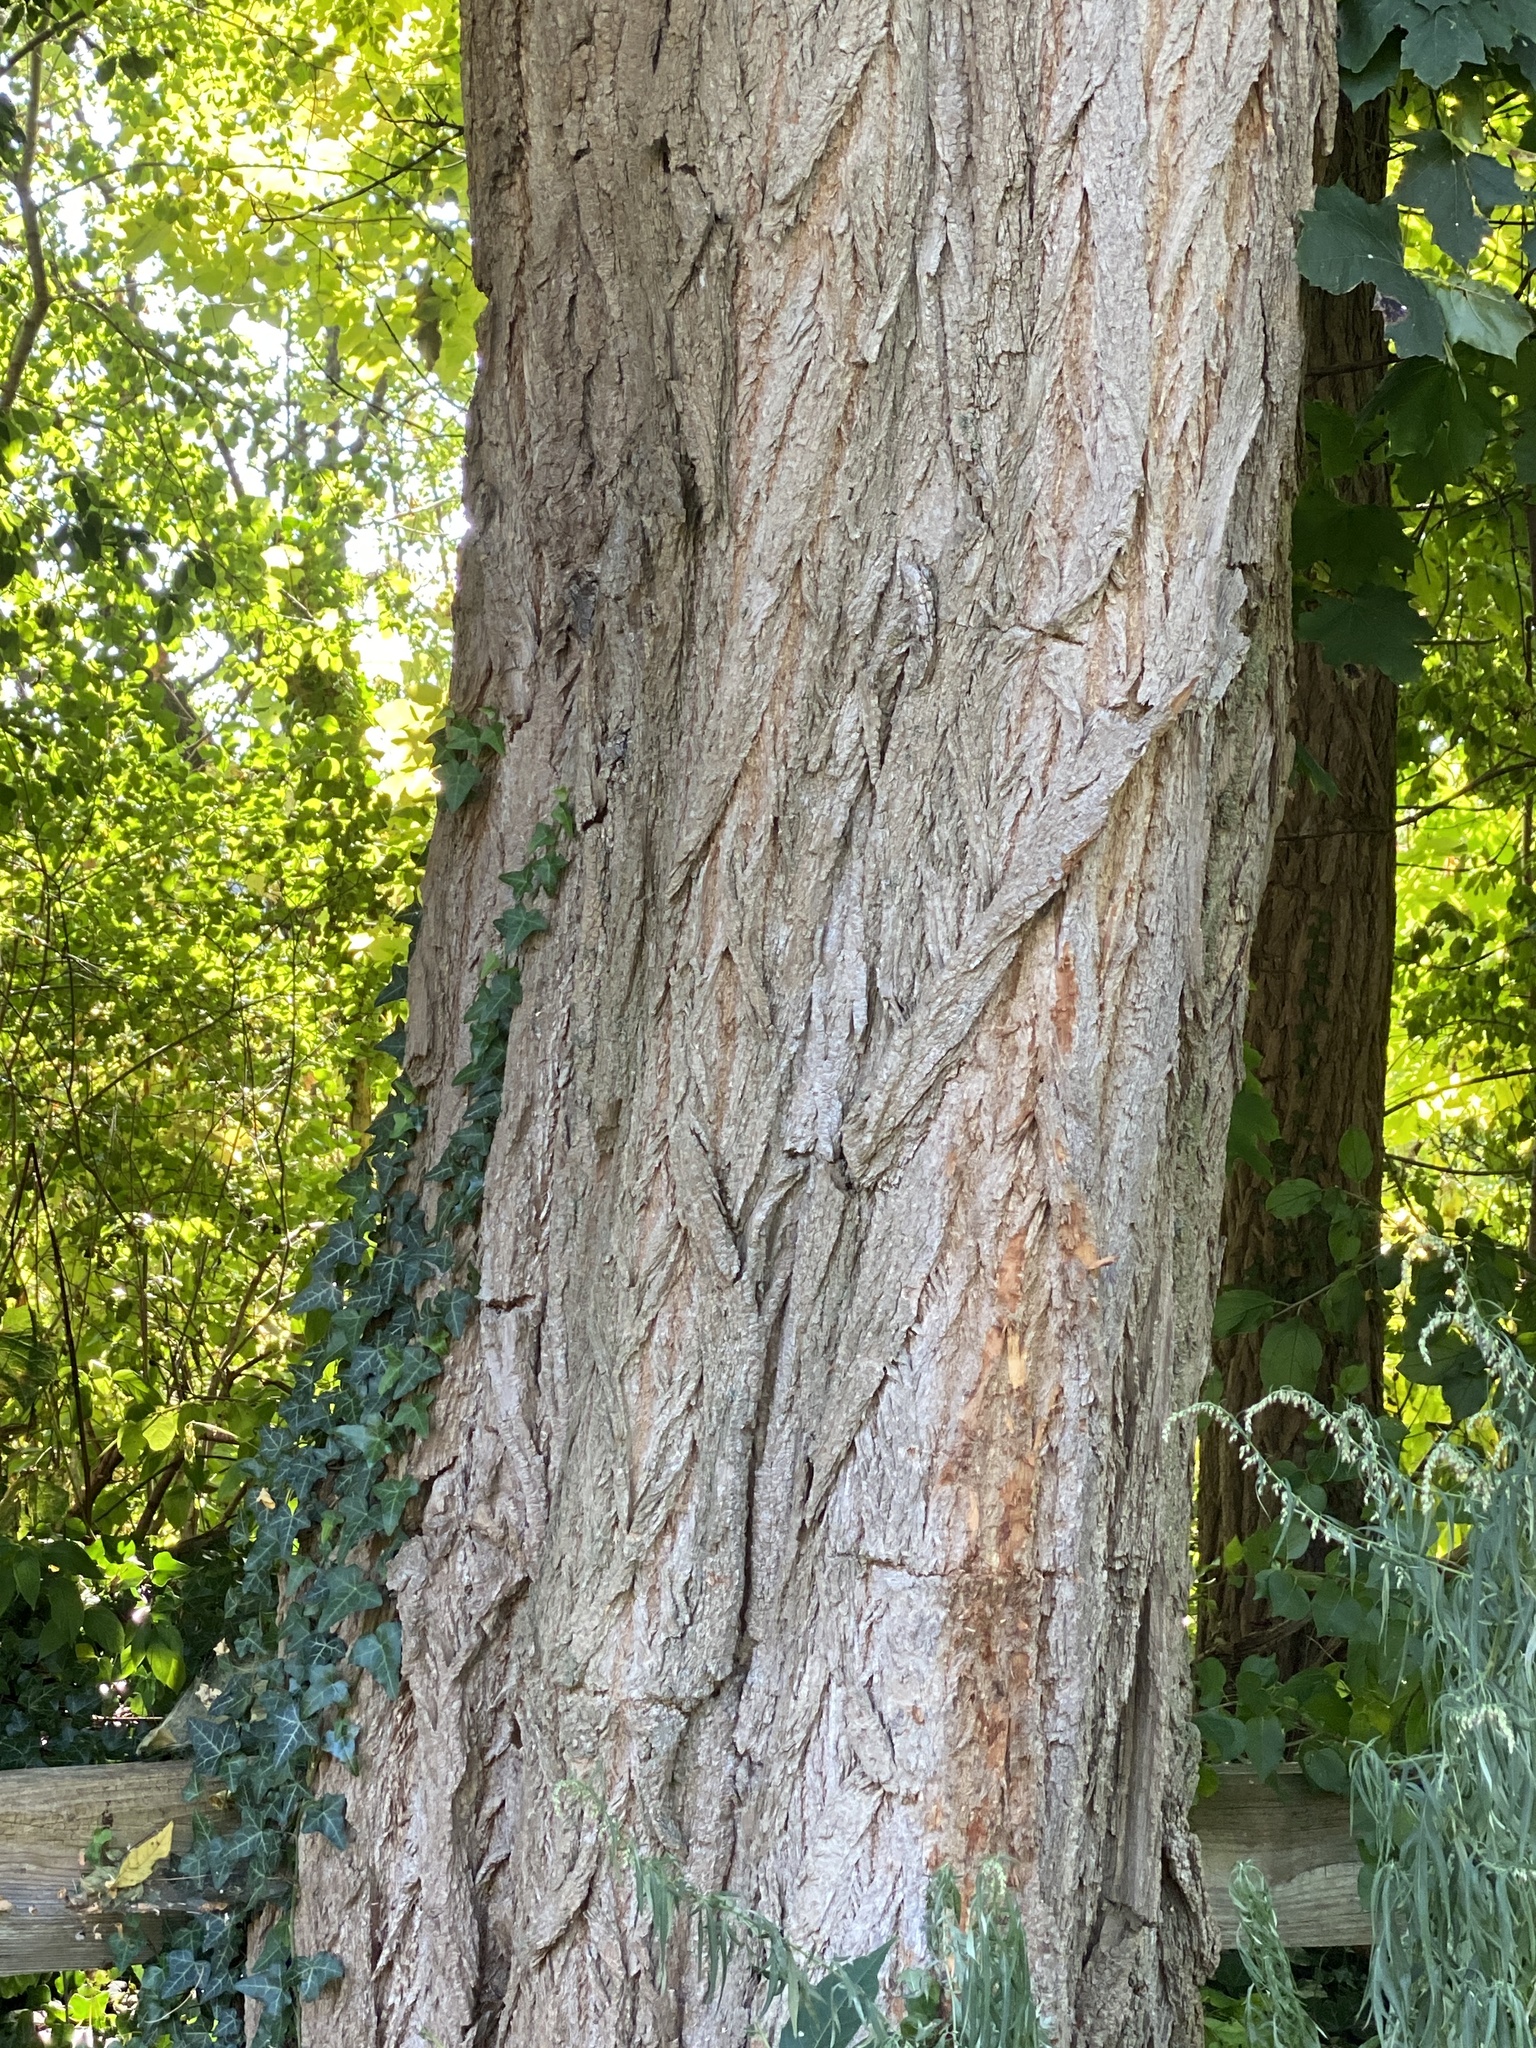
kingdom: Plantae
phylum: Tracheophyta
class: Magnoliopsida
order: Fabales
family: Fabaceae
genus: Robinia
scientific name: Robinia pseudoacacia
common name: Black locust
